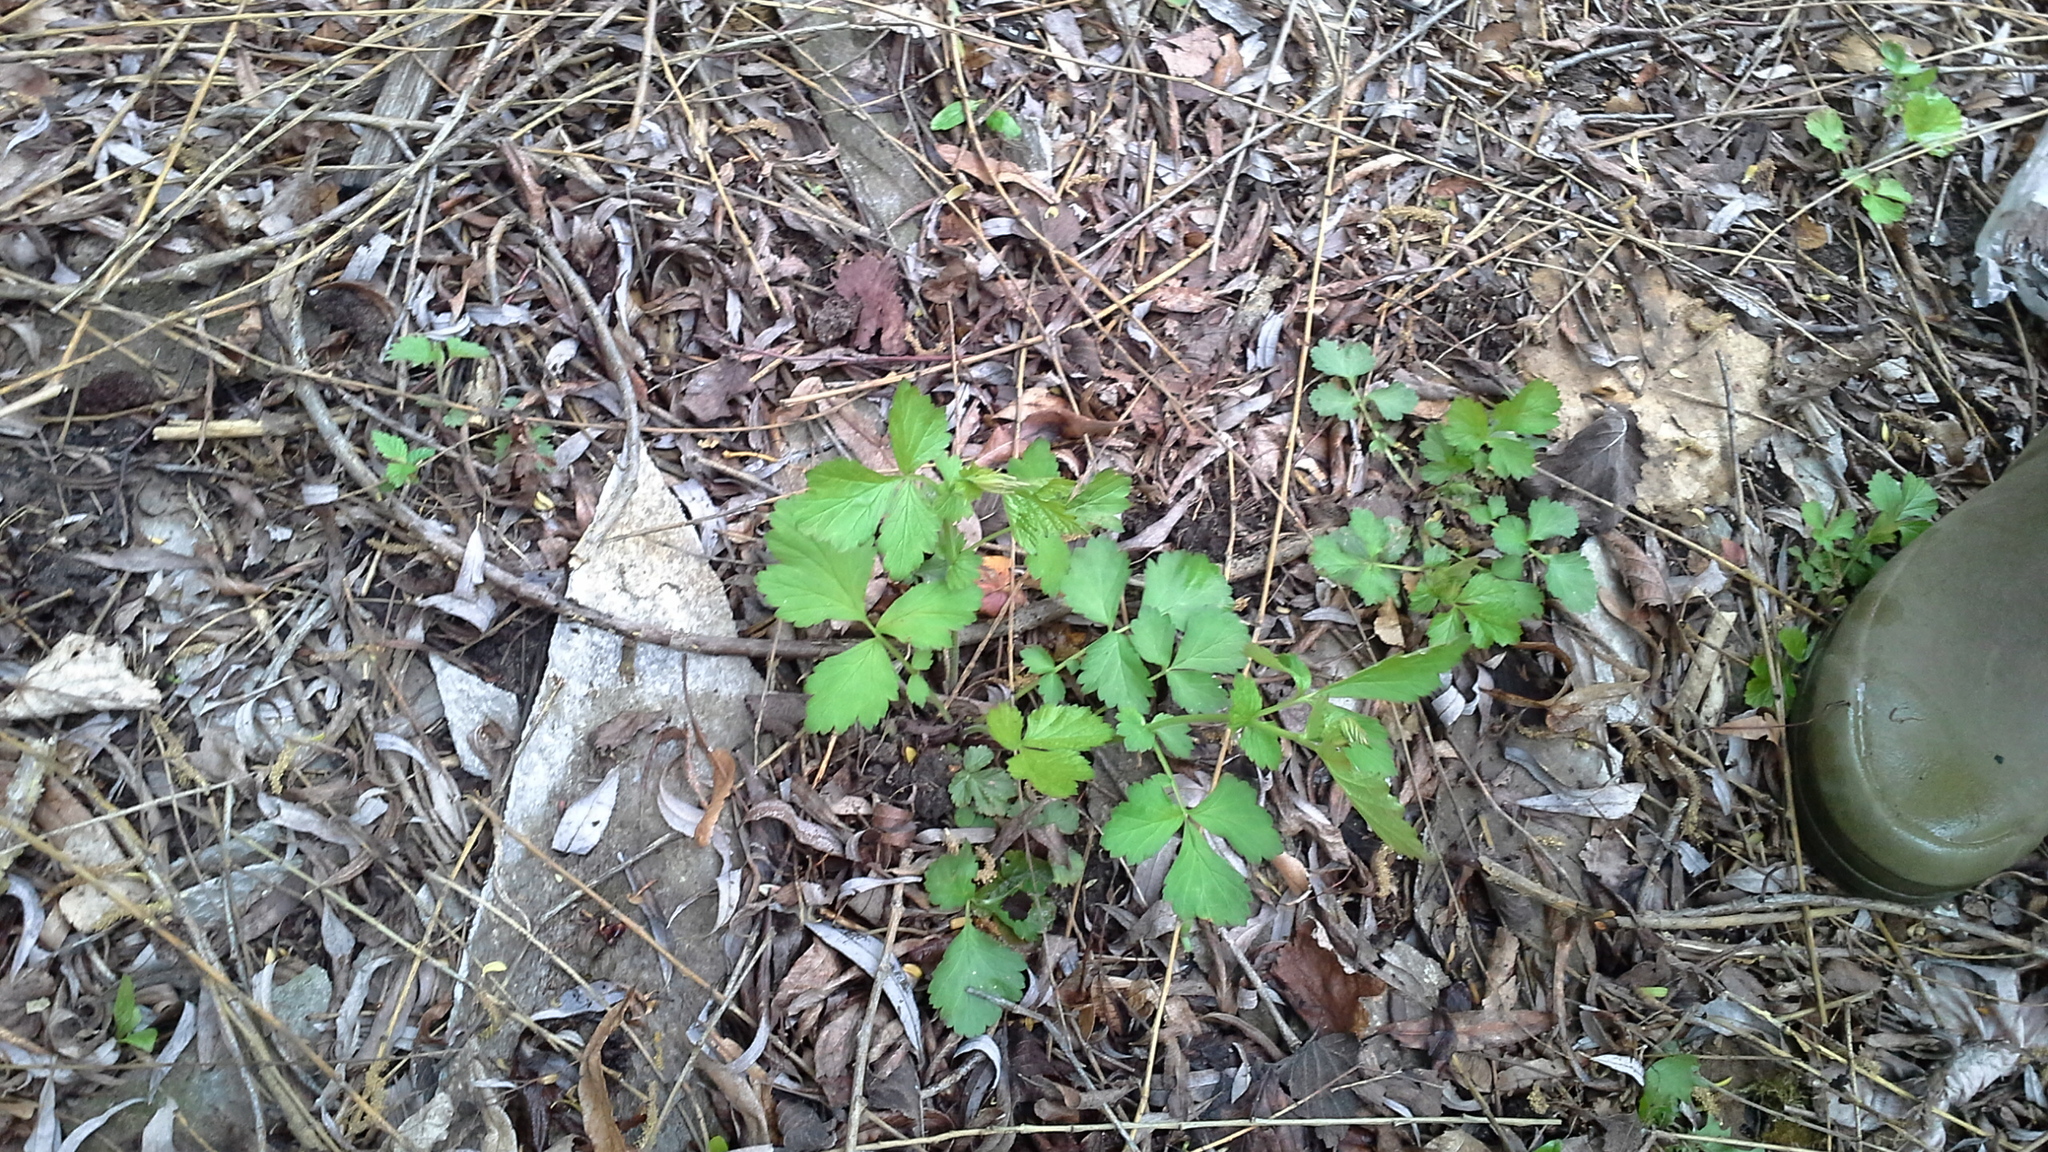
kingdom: Plantae
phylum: Tracheophyta
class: Magnoliopsida
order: Rosales
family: Rosaceae
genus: Geum
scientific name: Geum urbanum
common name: Wood avens
